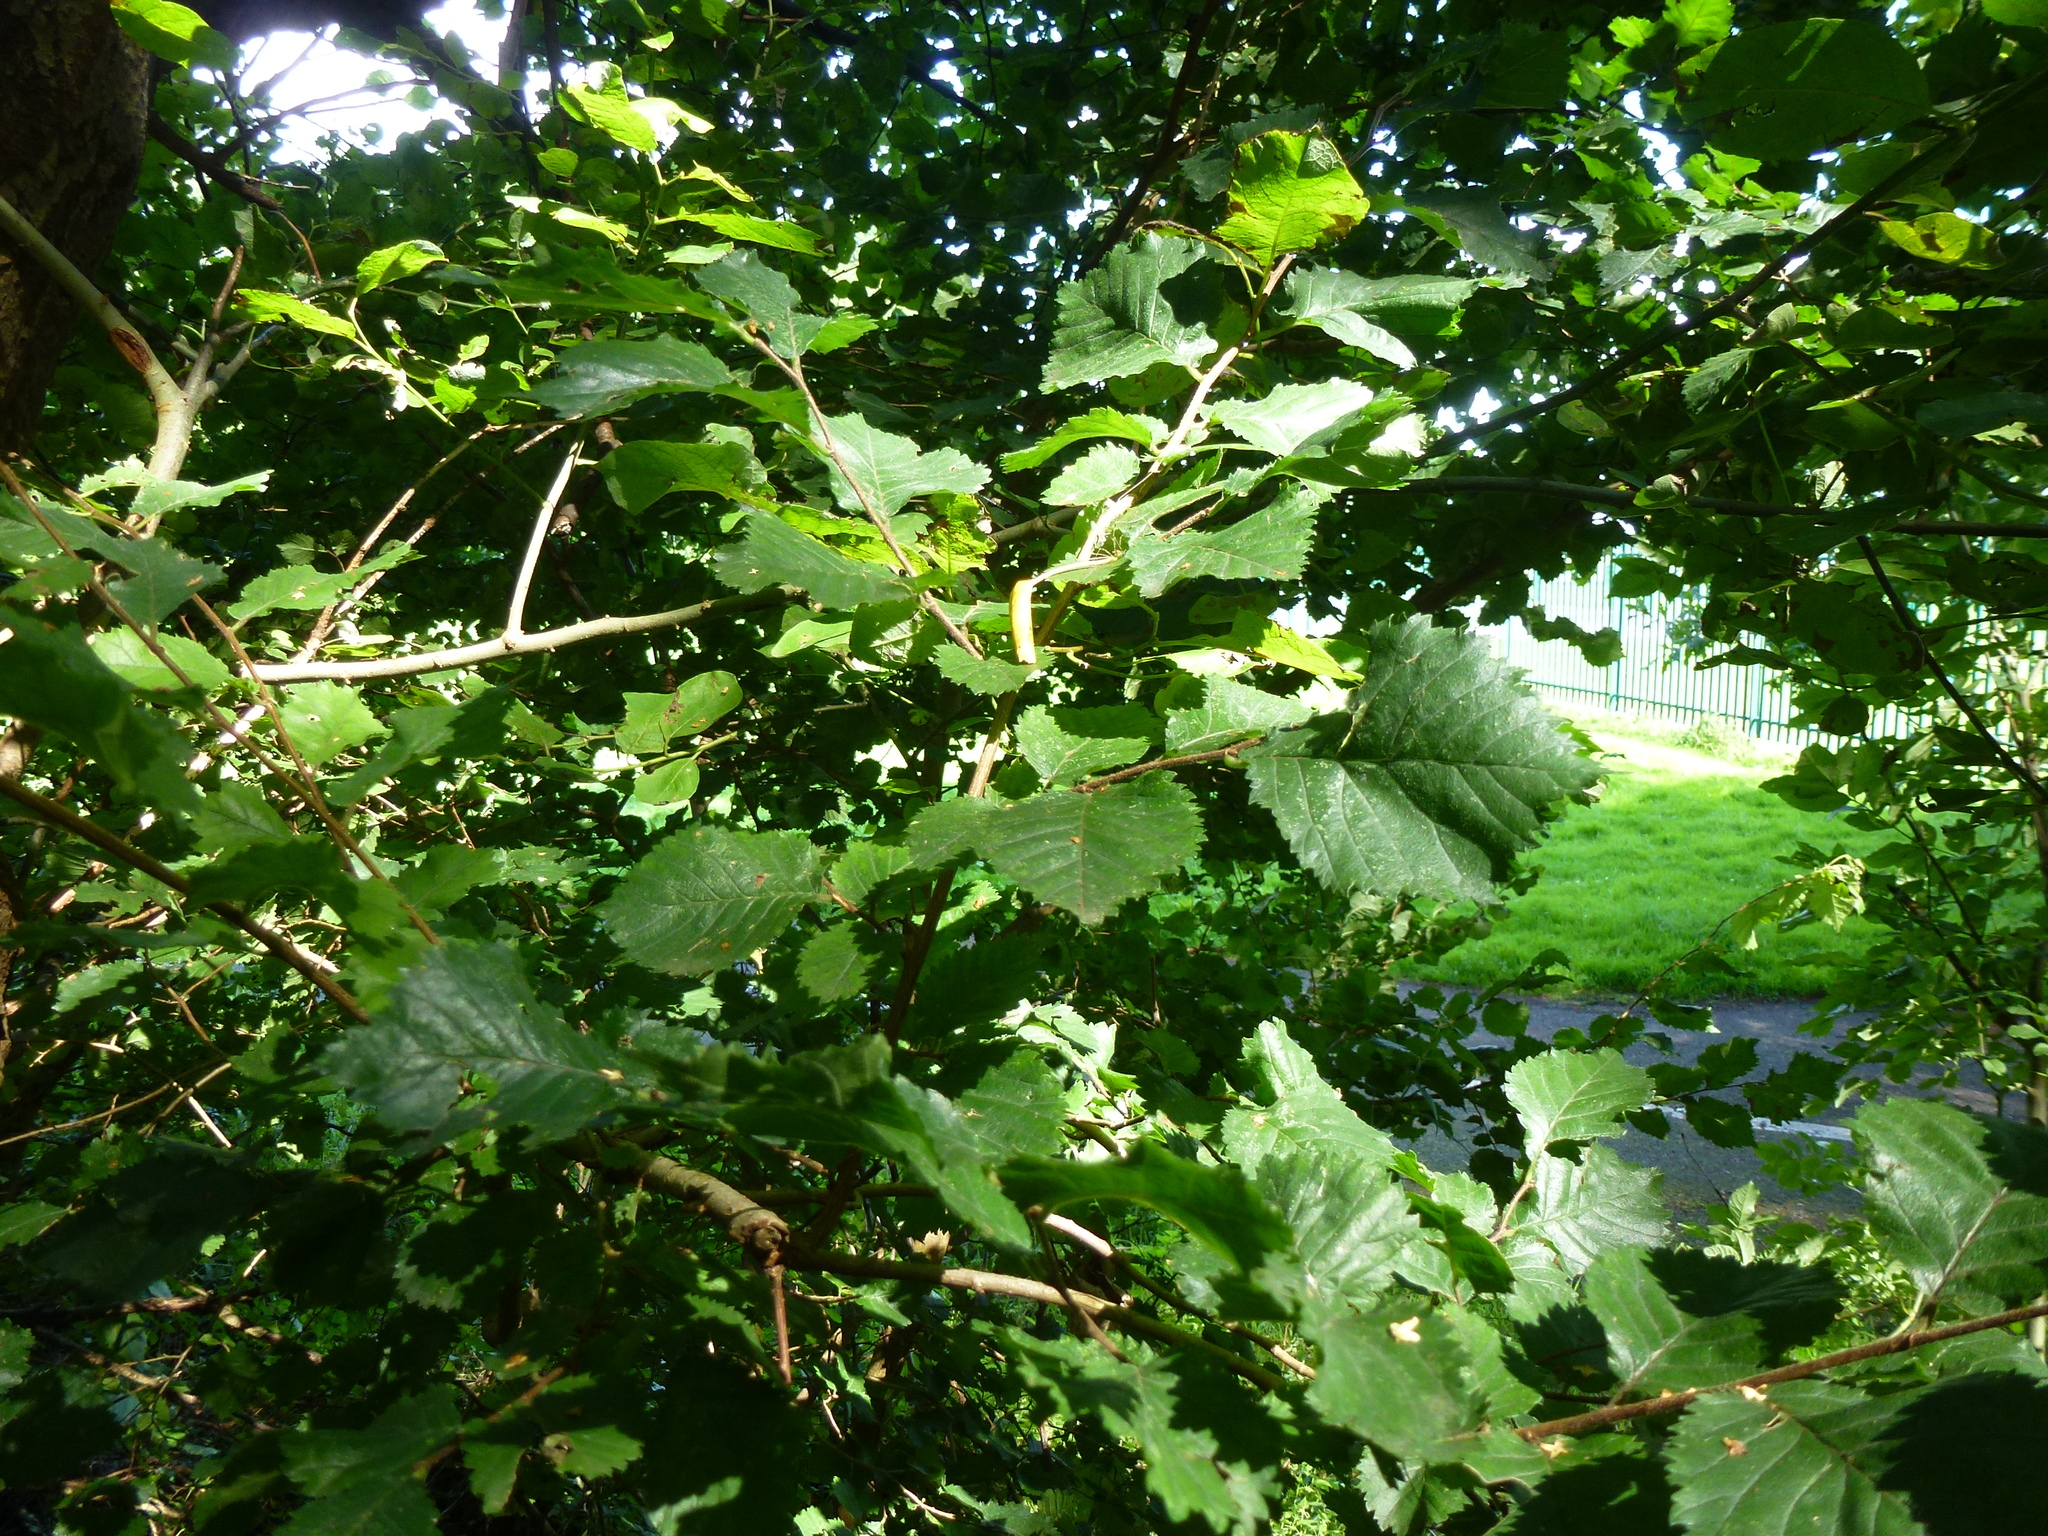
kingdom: Plantae
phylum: Tracheophyta
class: Magnoliopsida
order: Rosales
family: Ulmaceae
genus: Ulmus
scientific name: Ulmus glabra
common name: Wych elm
